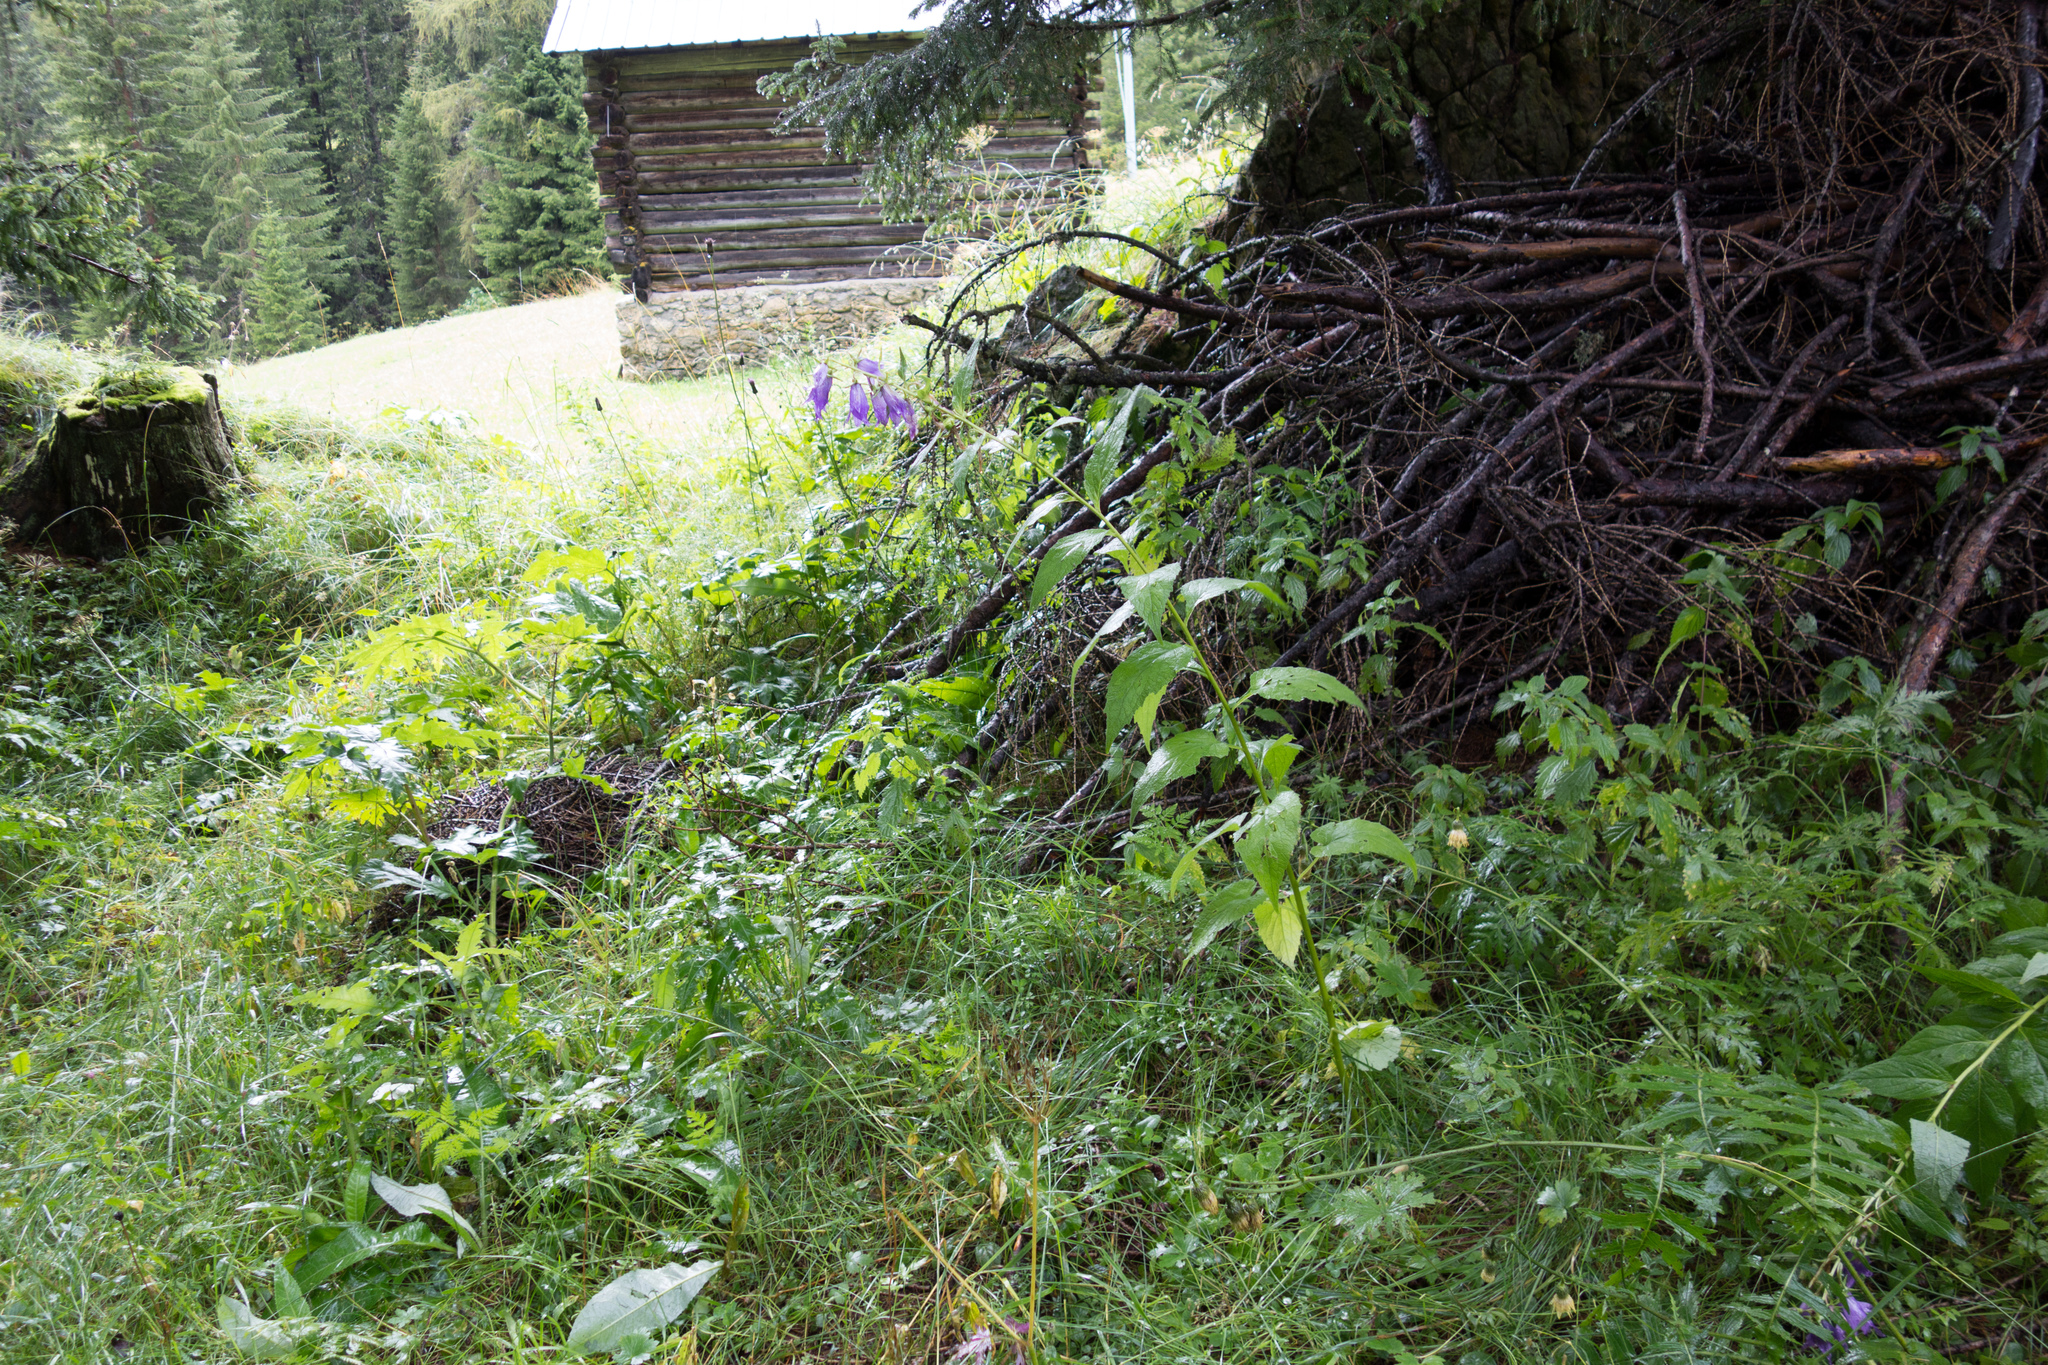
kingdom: Plantae
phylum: Tracheophyta
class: Magnoliopsida
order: Asterales
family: Campanulaceae
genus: Campanula
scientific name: Campanula latifolia
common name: Giant bellflower
